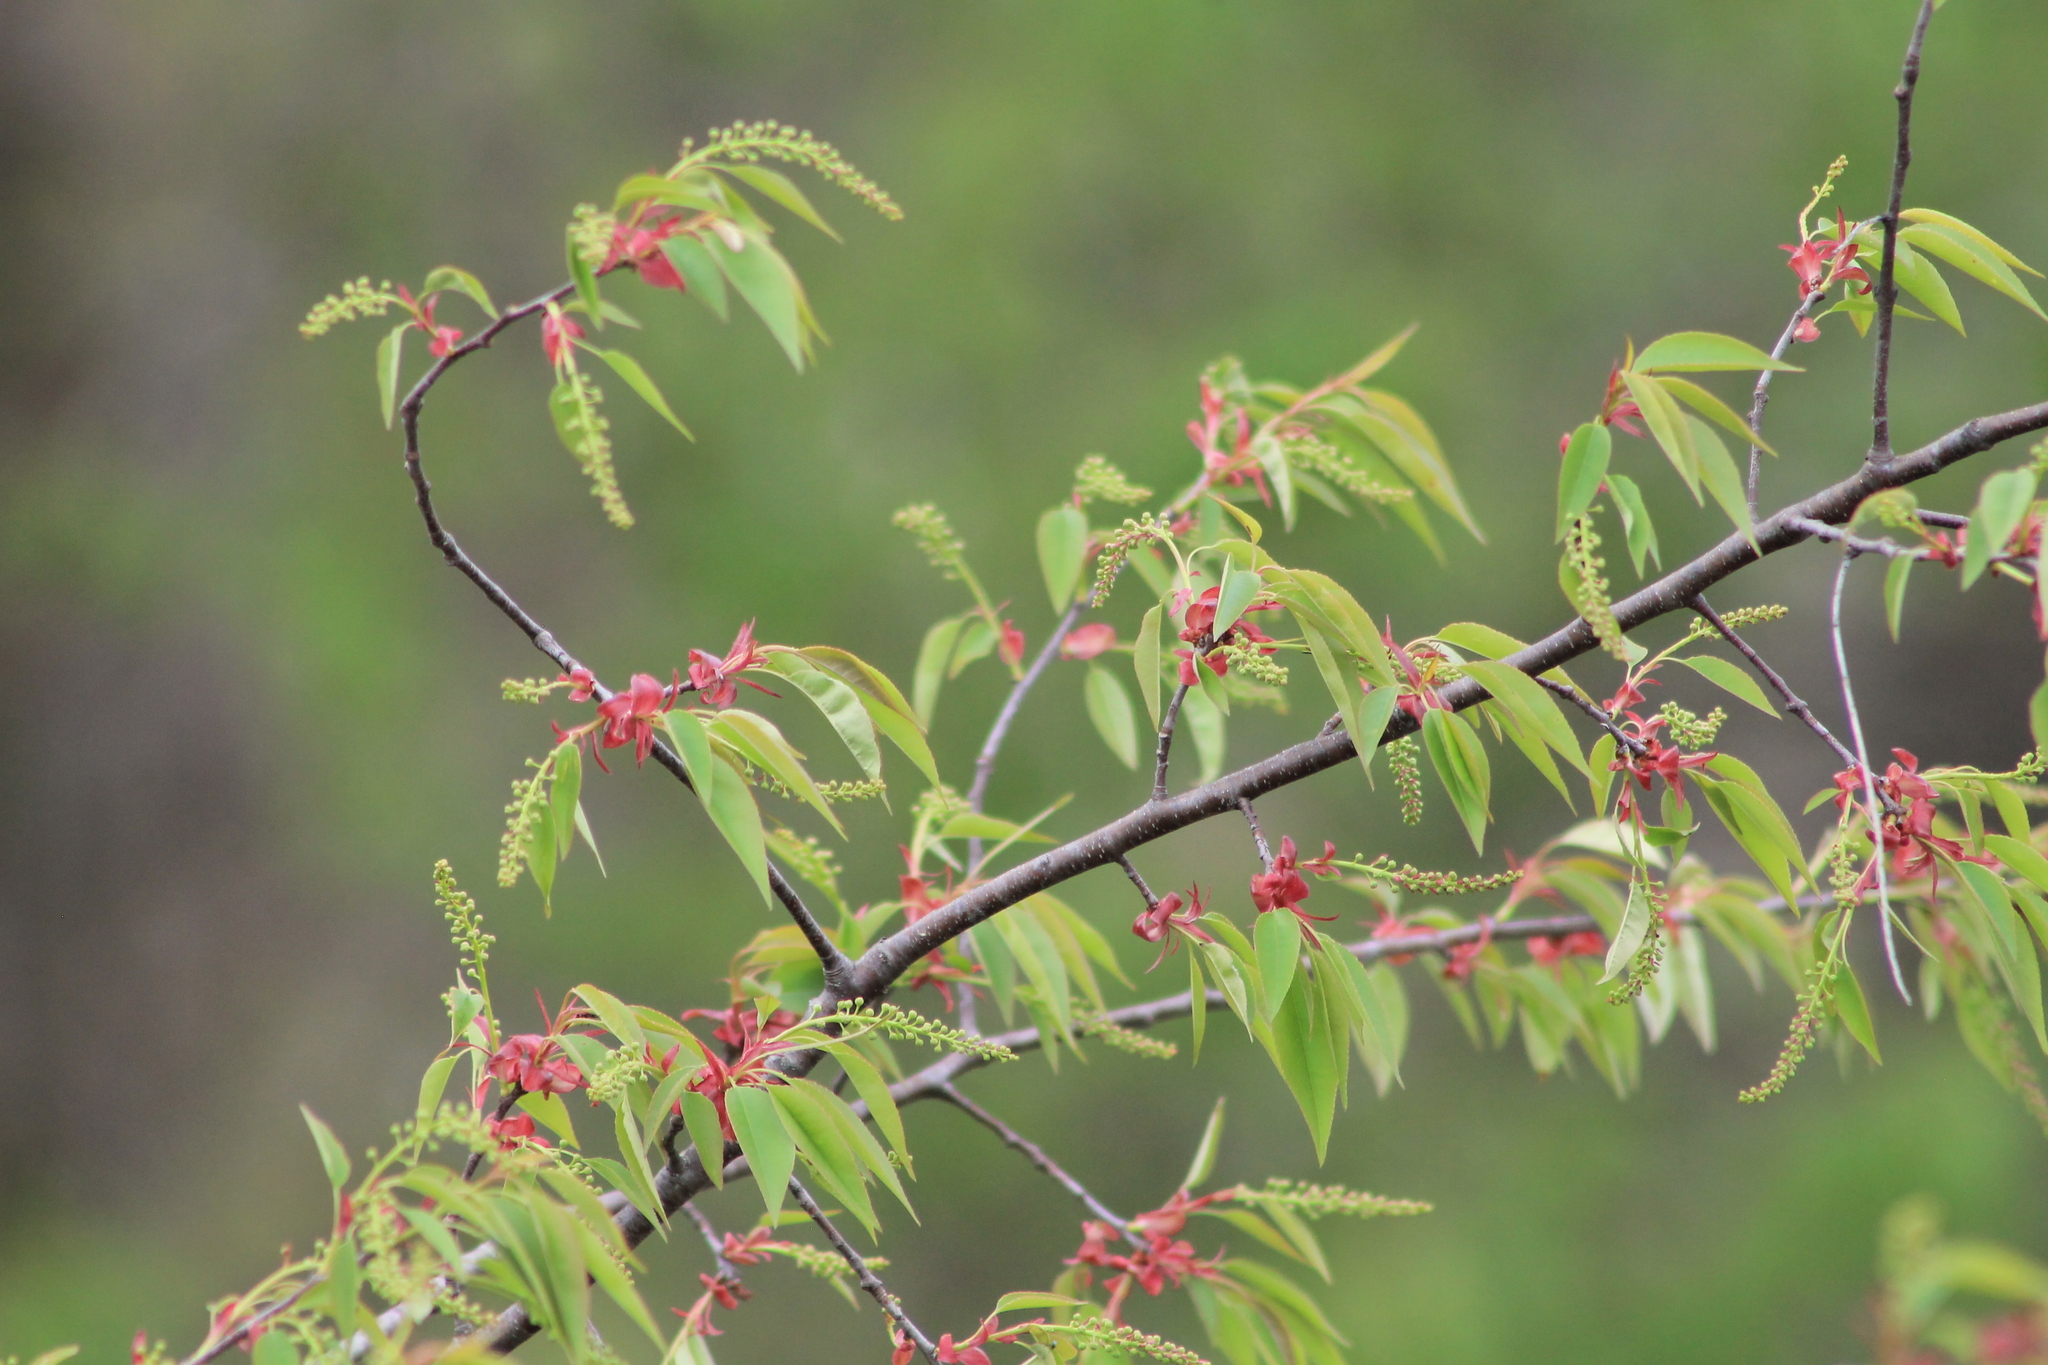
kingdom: Plantae
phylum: Tracheophyta
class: Magnoliopsida
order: Rosales
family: Rosaceae
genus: Prunus
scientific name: Prunus serotina
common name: Black cherry
